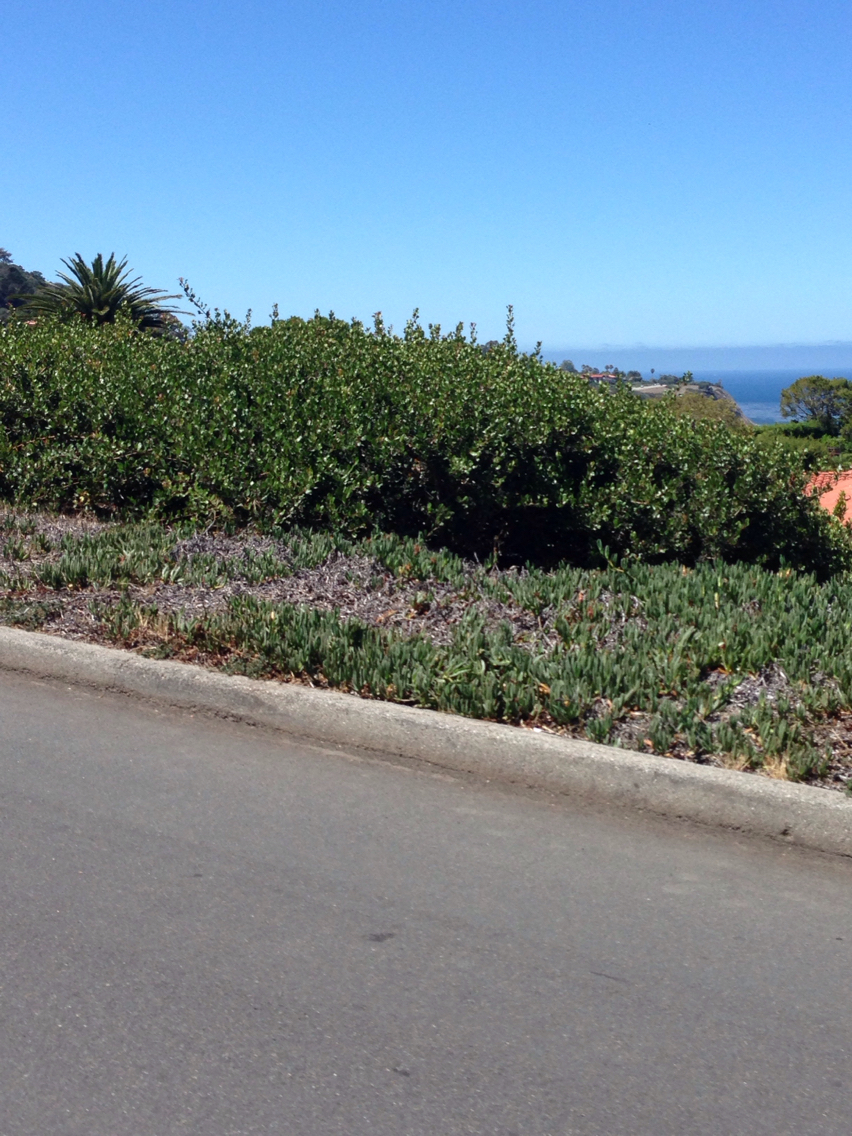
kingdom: Plantae
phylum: Tracheophyta
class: Magnoliopsida
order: Sapindales
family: Anacardiaceae
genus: Rhus
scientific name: Rhus integrifolia
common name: Lemonade sumac
